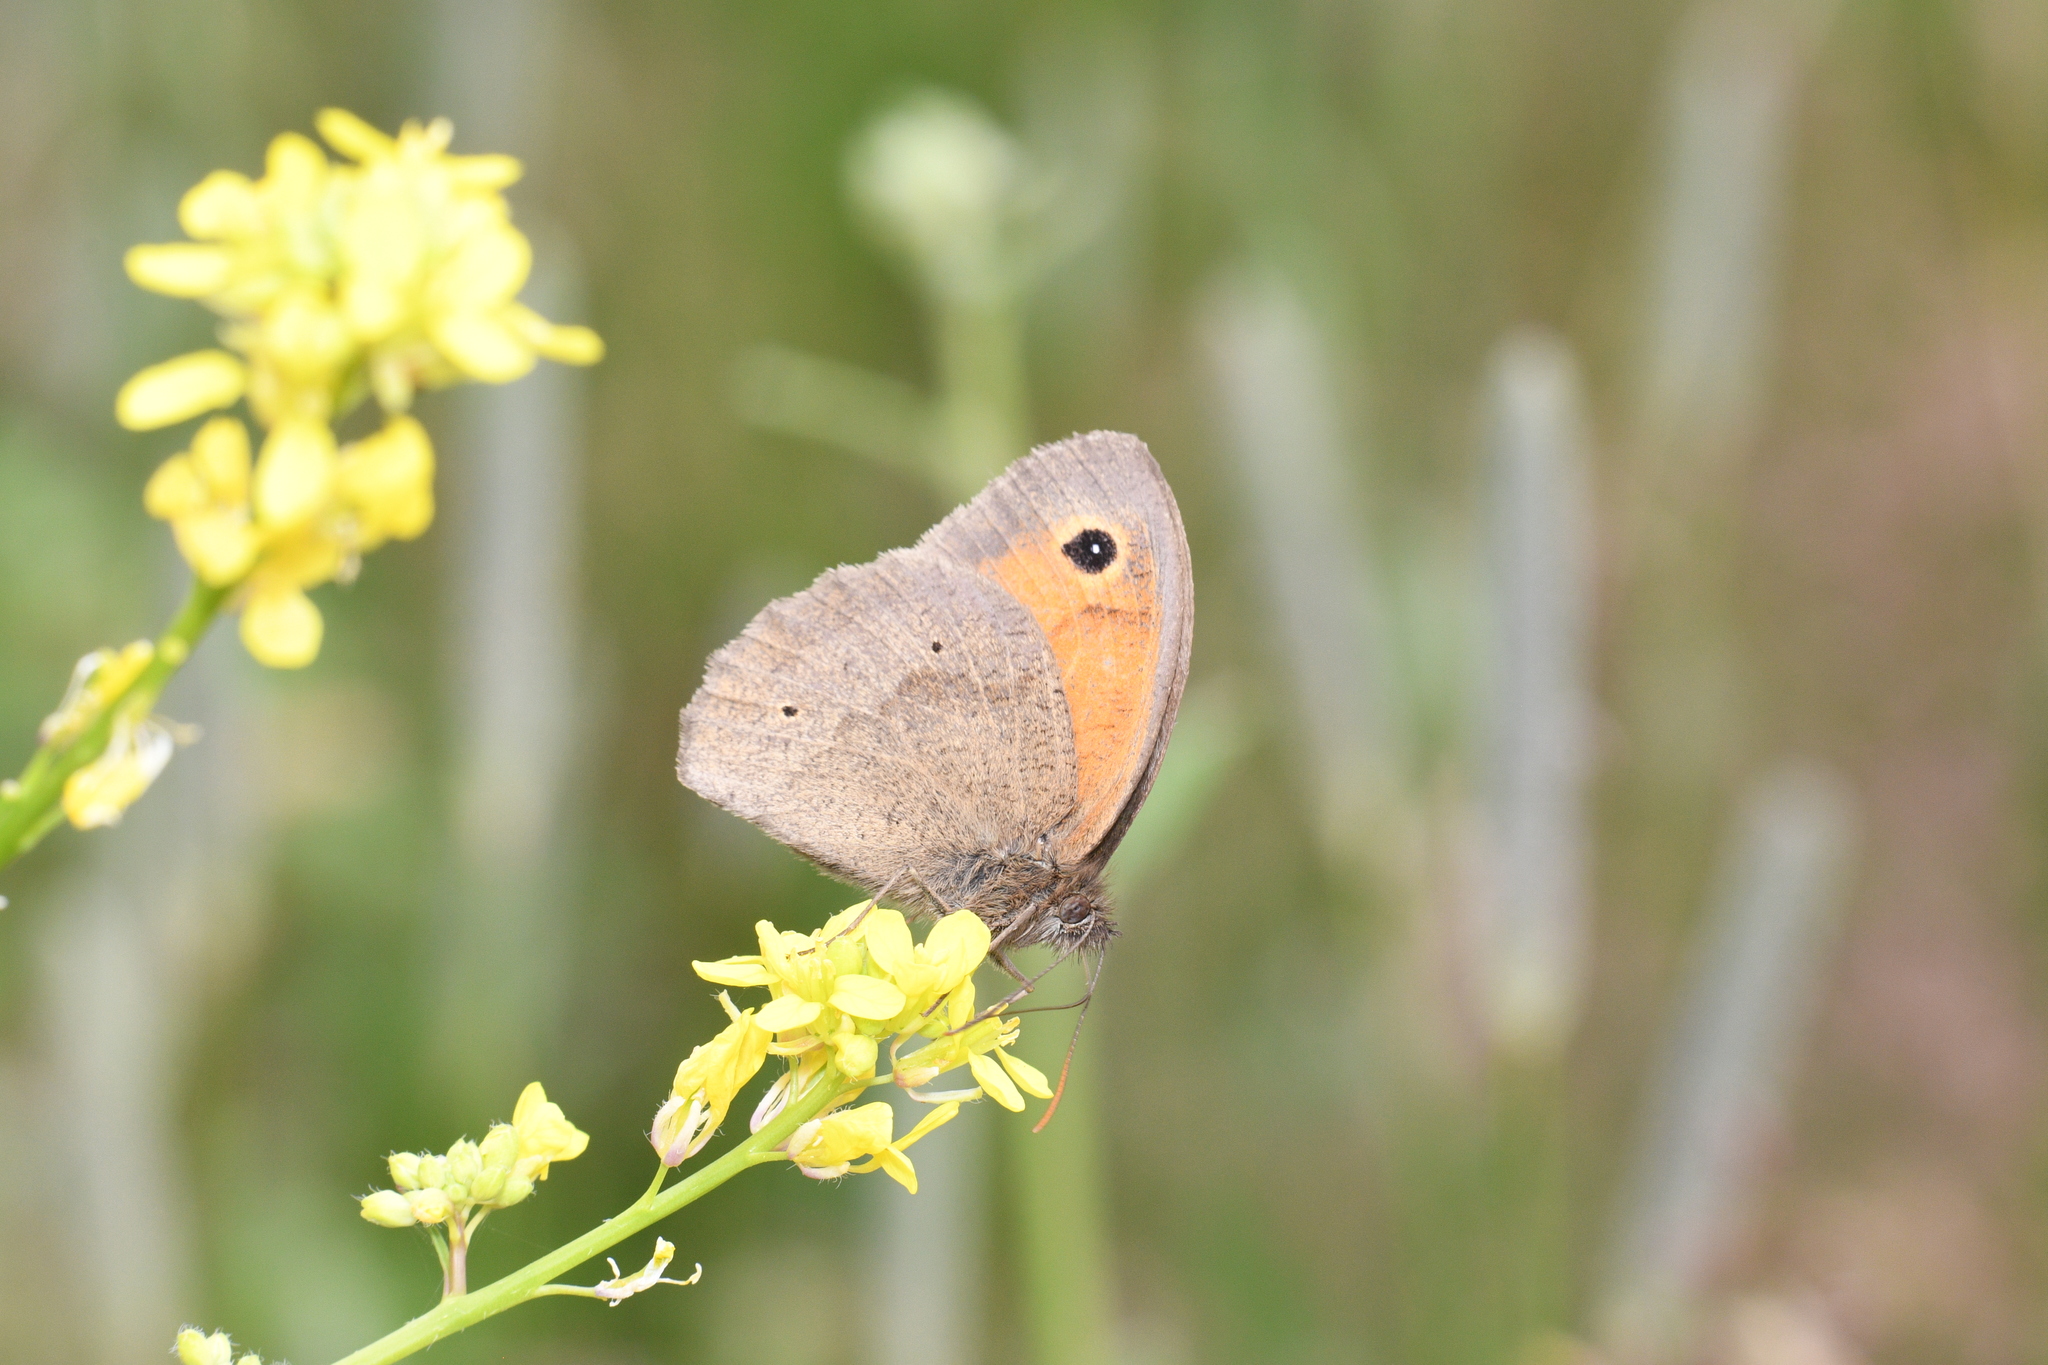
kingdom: Animalia
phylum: Arthropoda
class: Insecta
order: Lepidoptera
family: Nymphalidae
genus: Maniola
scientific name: Maniola jurtina
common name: Meadow brown
